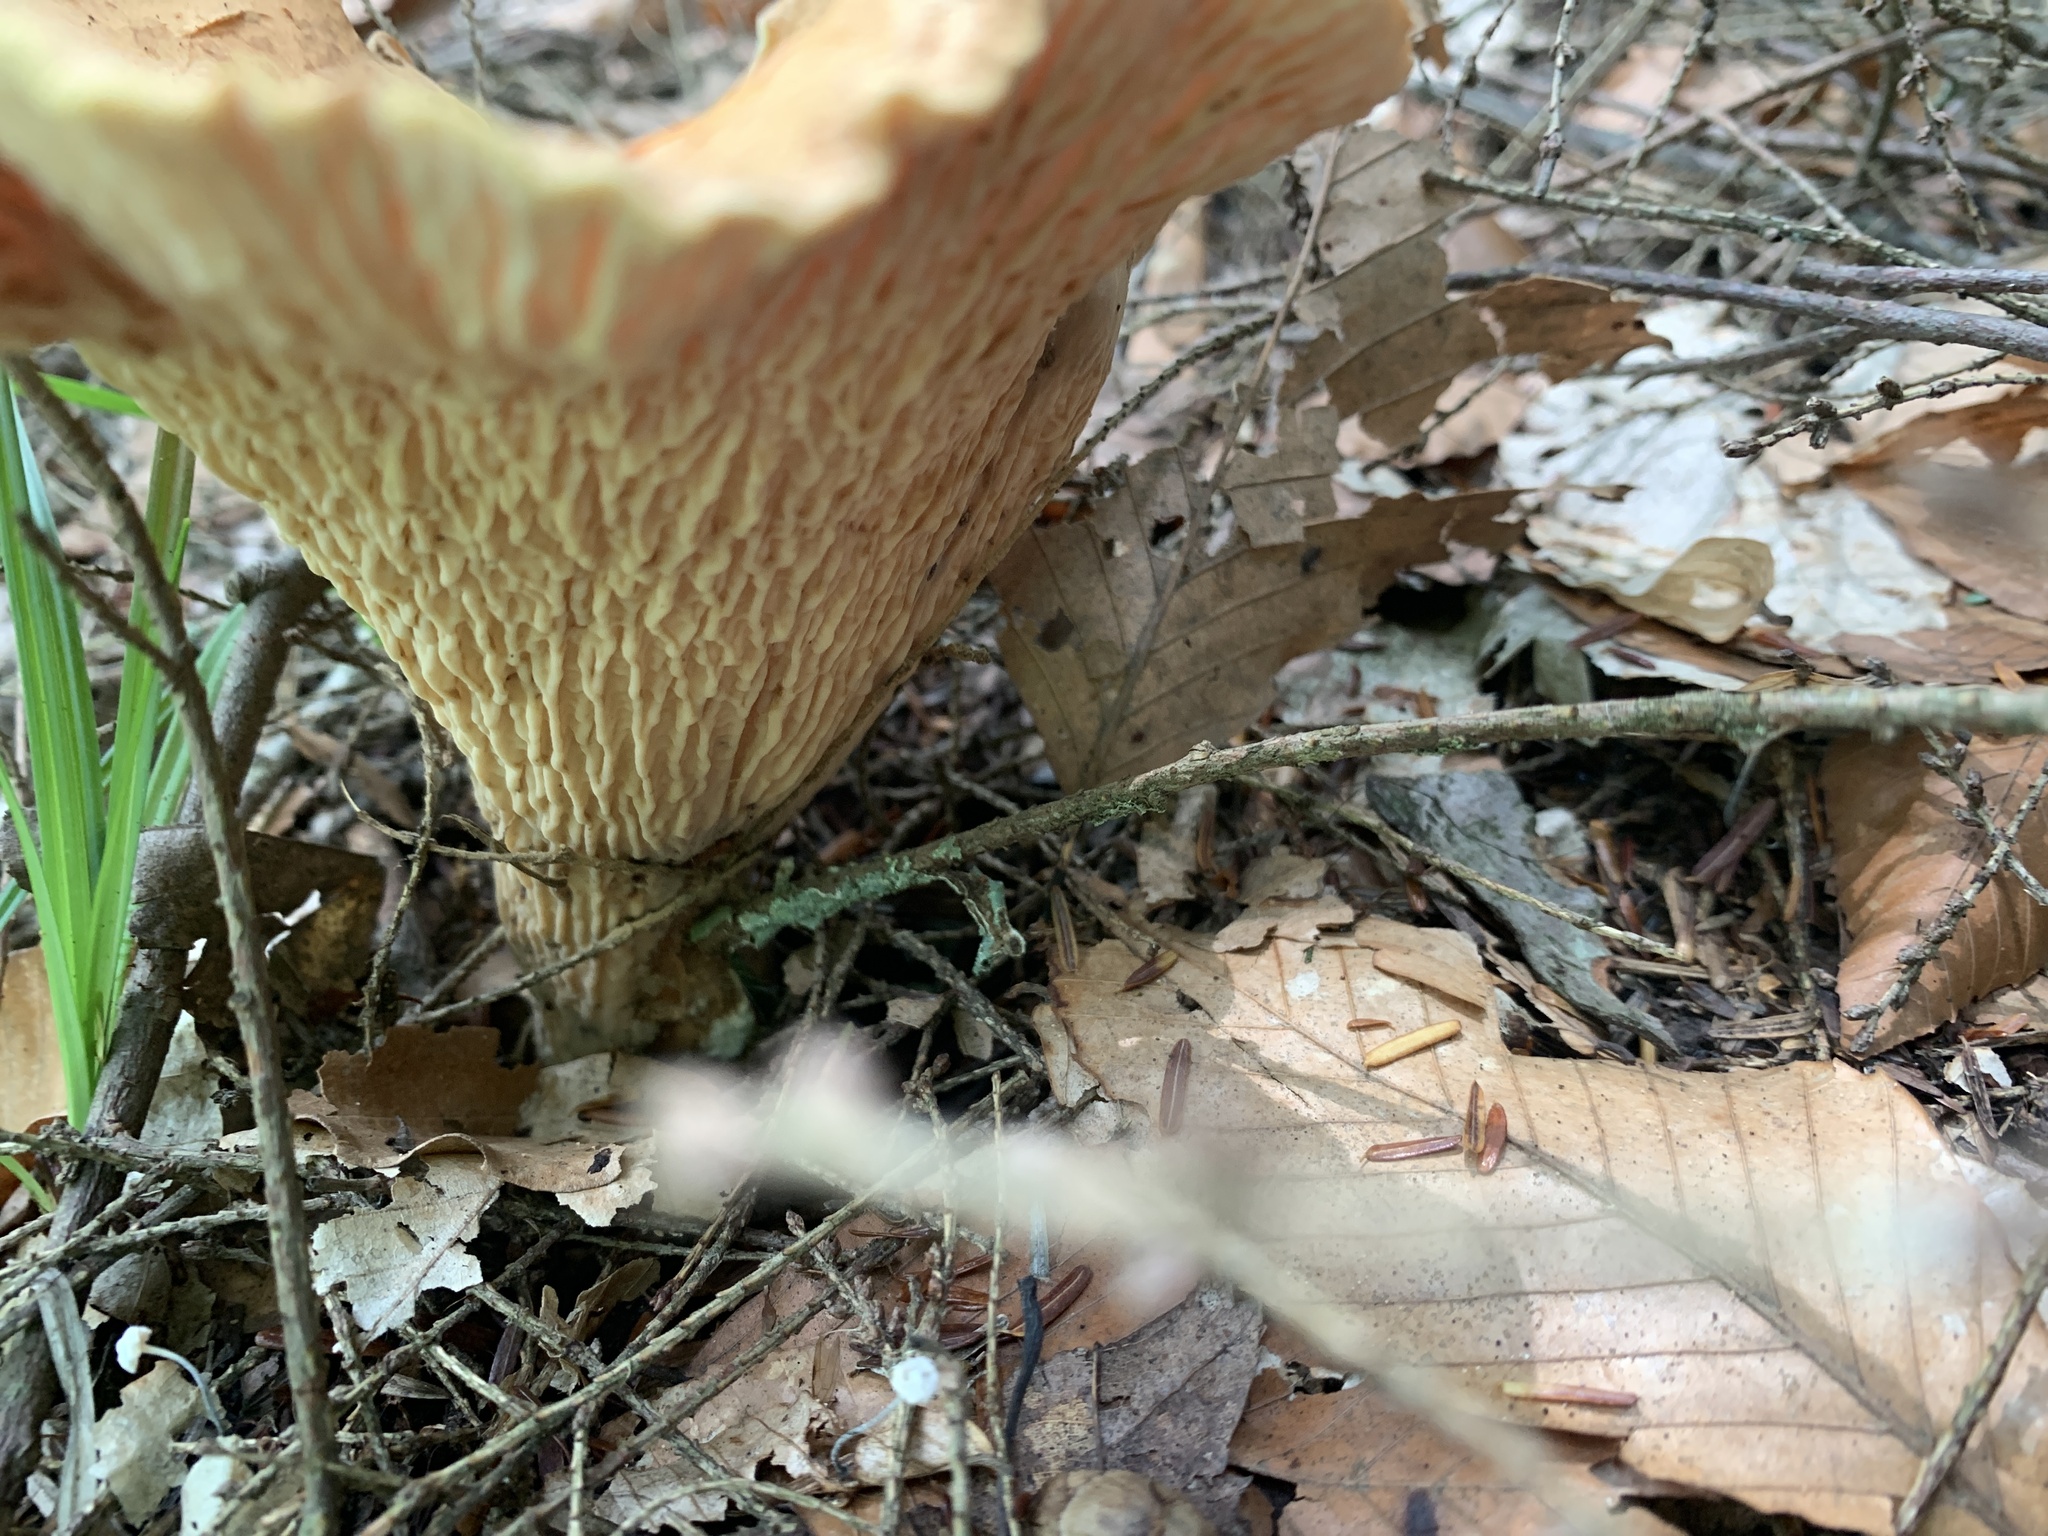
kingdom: Fungi
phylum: Basidiomycota
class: Agaricomycetes
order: Gomphales
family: Gomphaceae
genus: Turbinellus
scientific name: Turbinellus floccosus
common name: Scaly chanterelle
